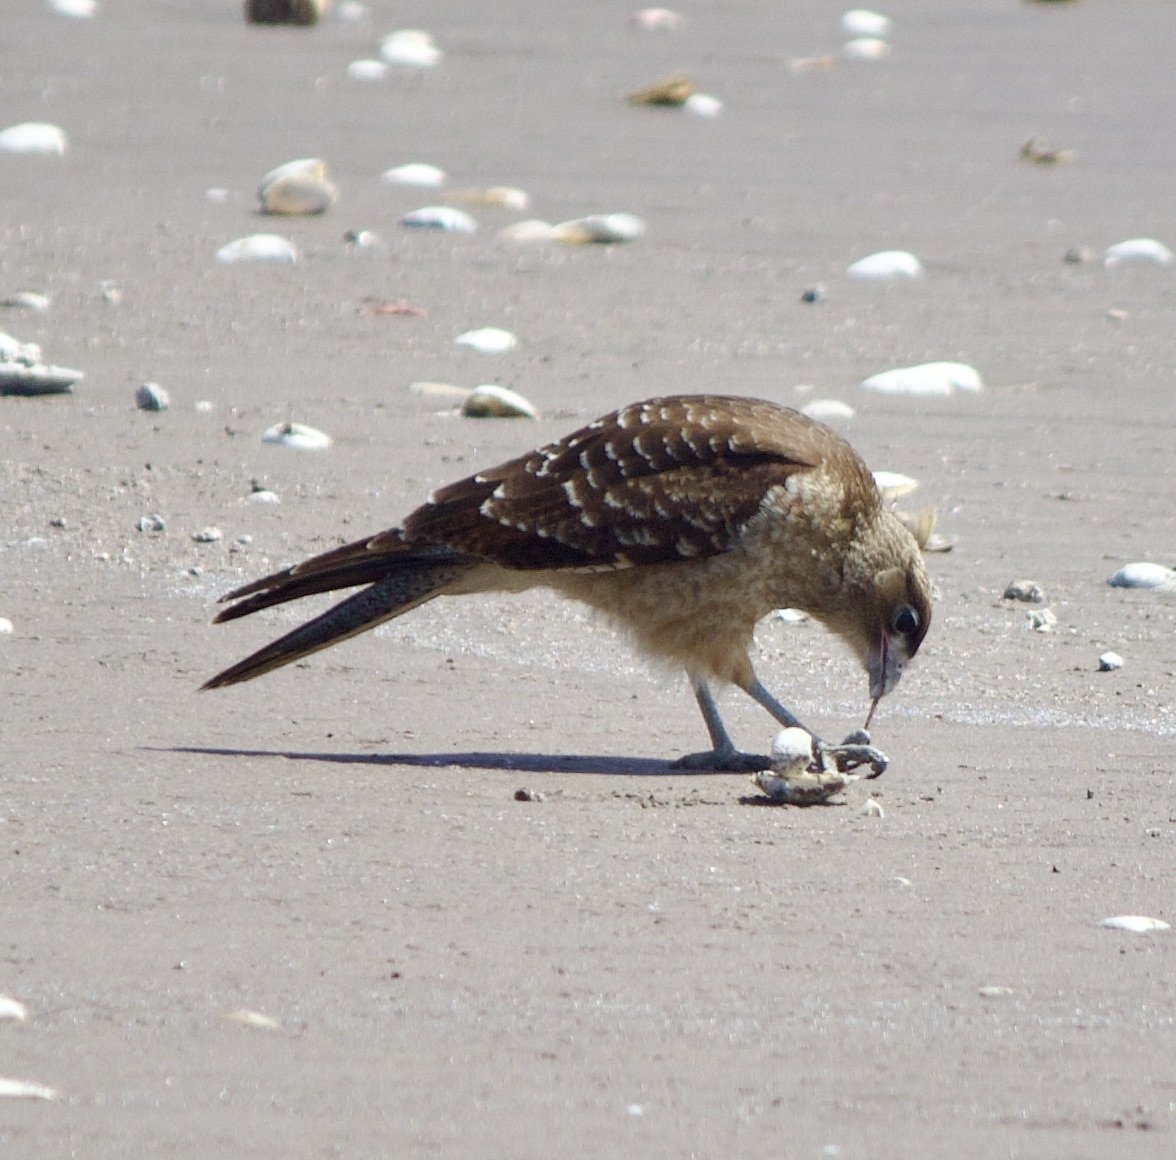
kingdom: Animalia
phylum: Chordata
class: Aves
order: Falconiformes
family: Falconidae
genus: Daptrius
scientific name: Daptrius
